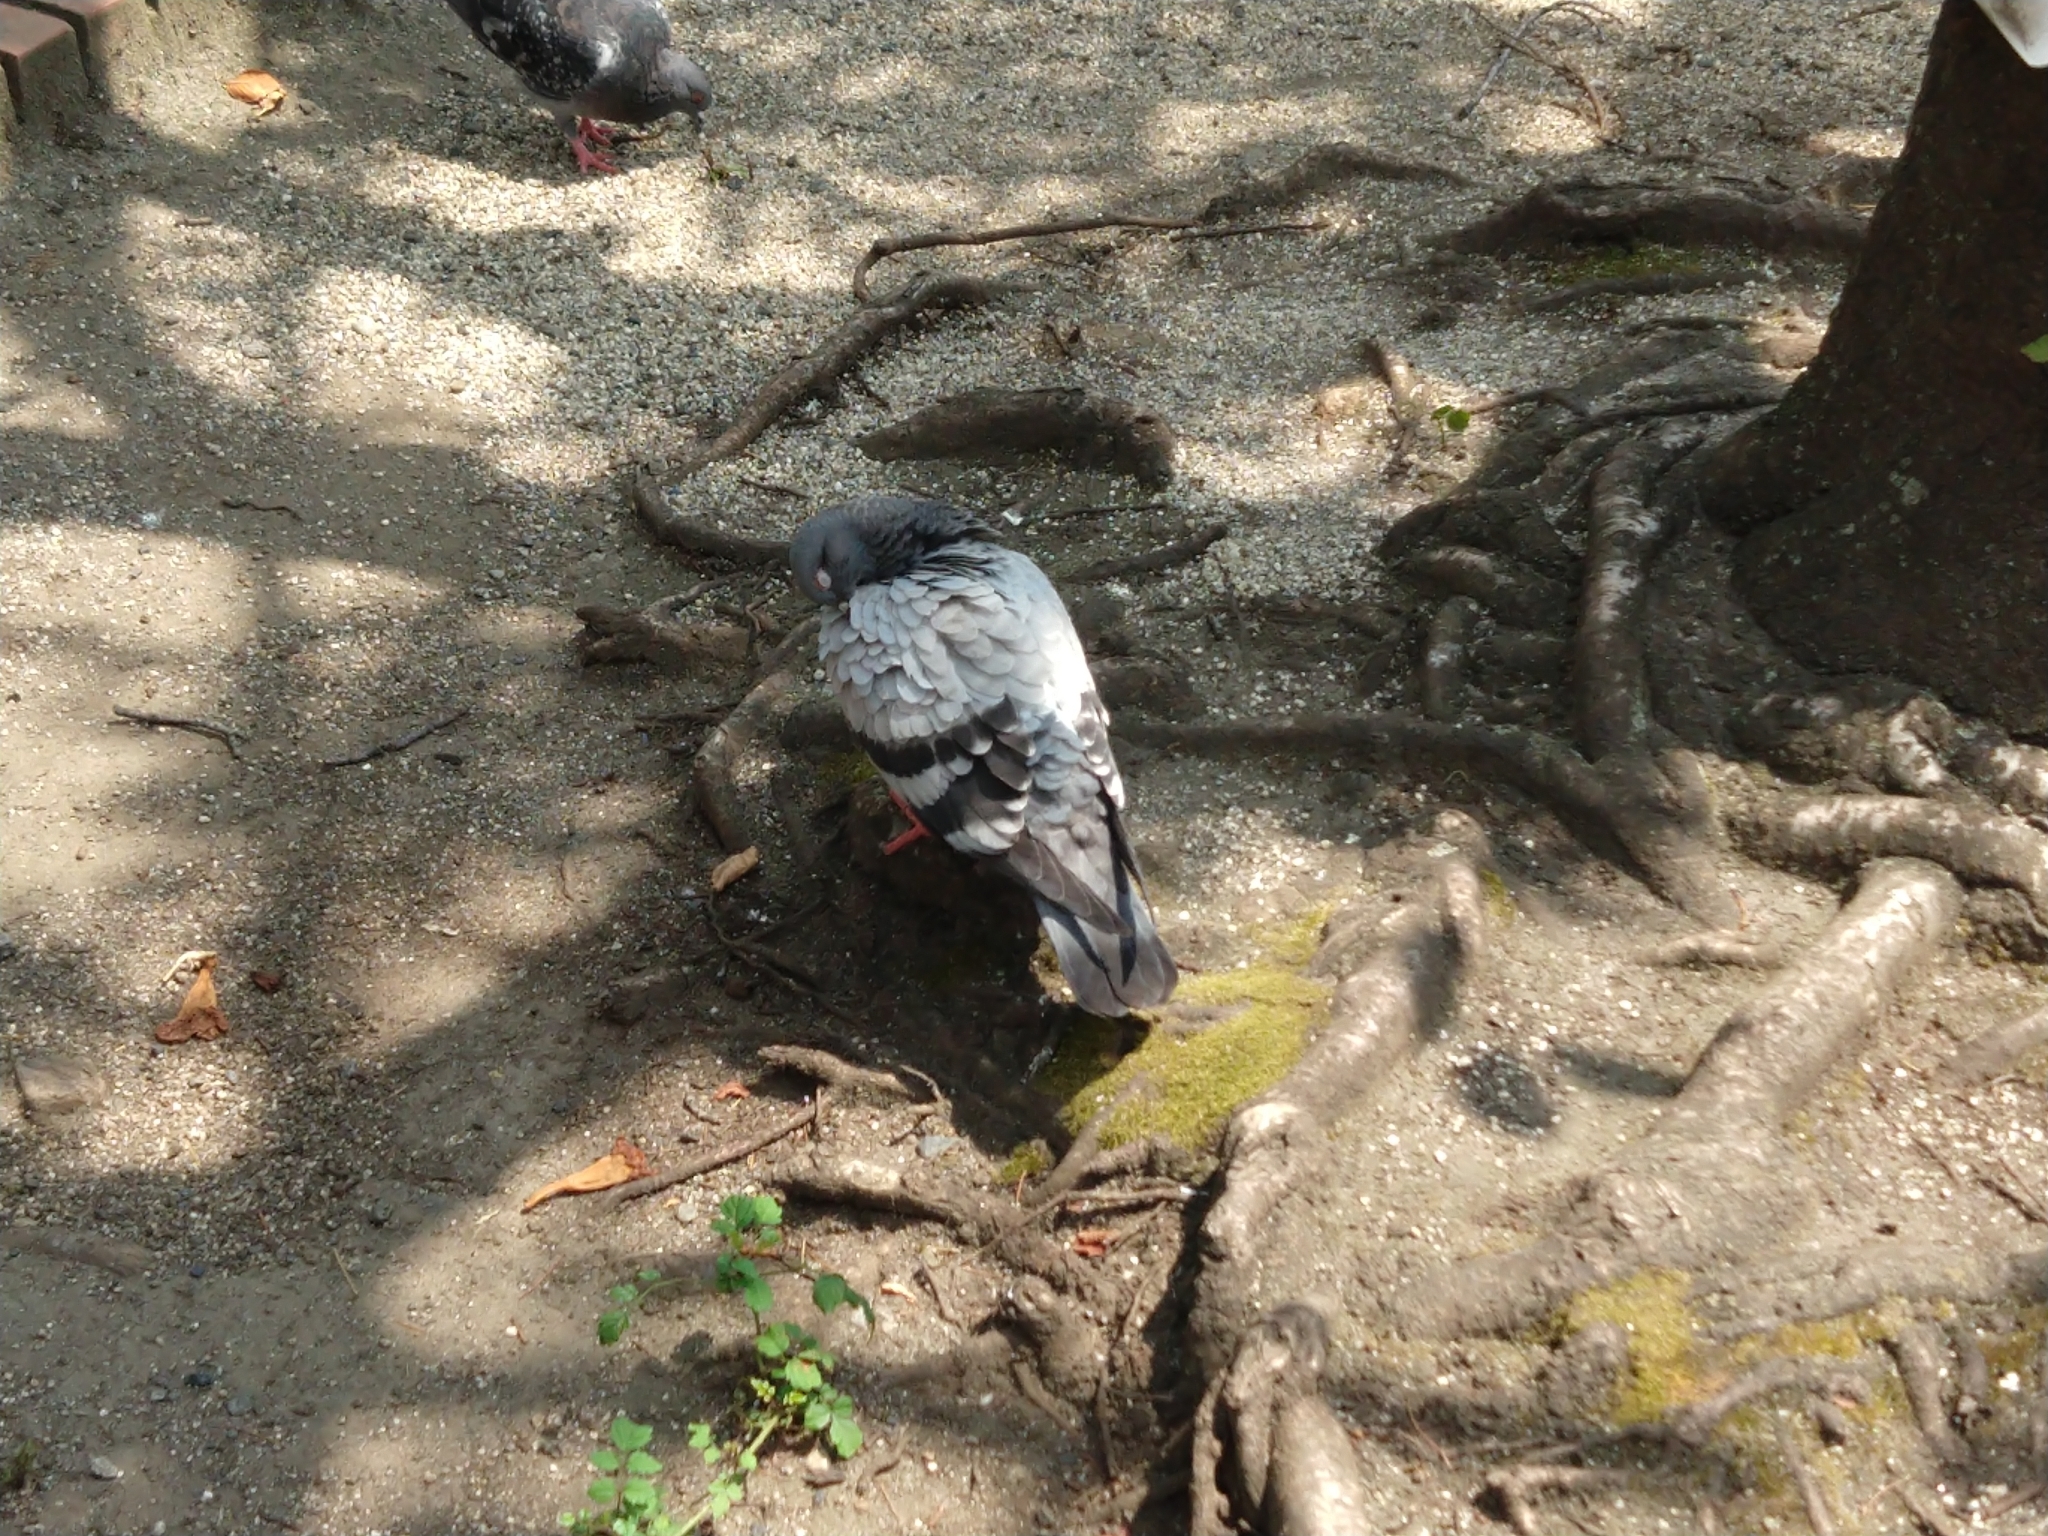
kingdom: Animalia
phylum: Chordata
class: Aves
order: Columbiformes
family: Columbidae
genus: Columba
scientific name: Columba livia
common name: Rock pigeon
